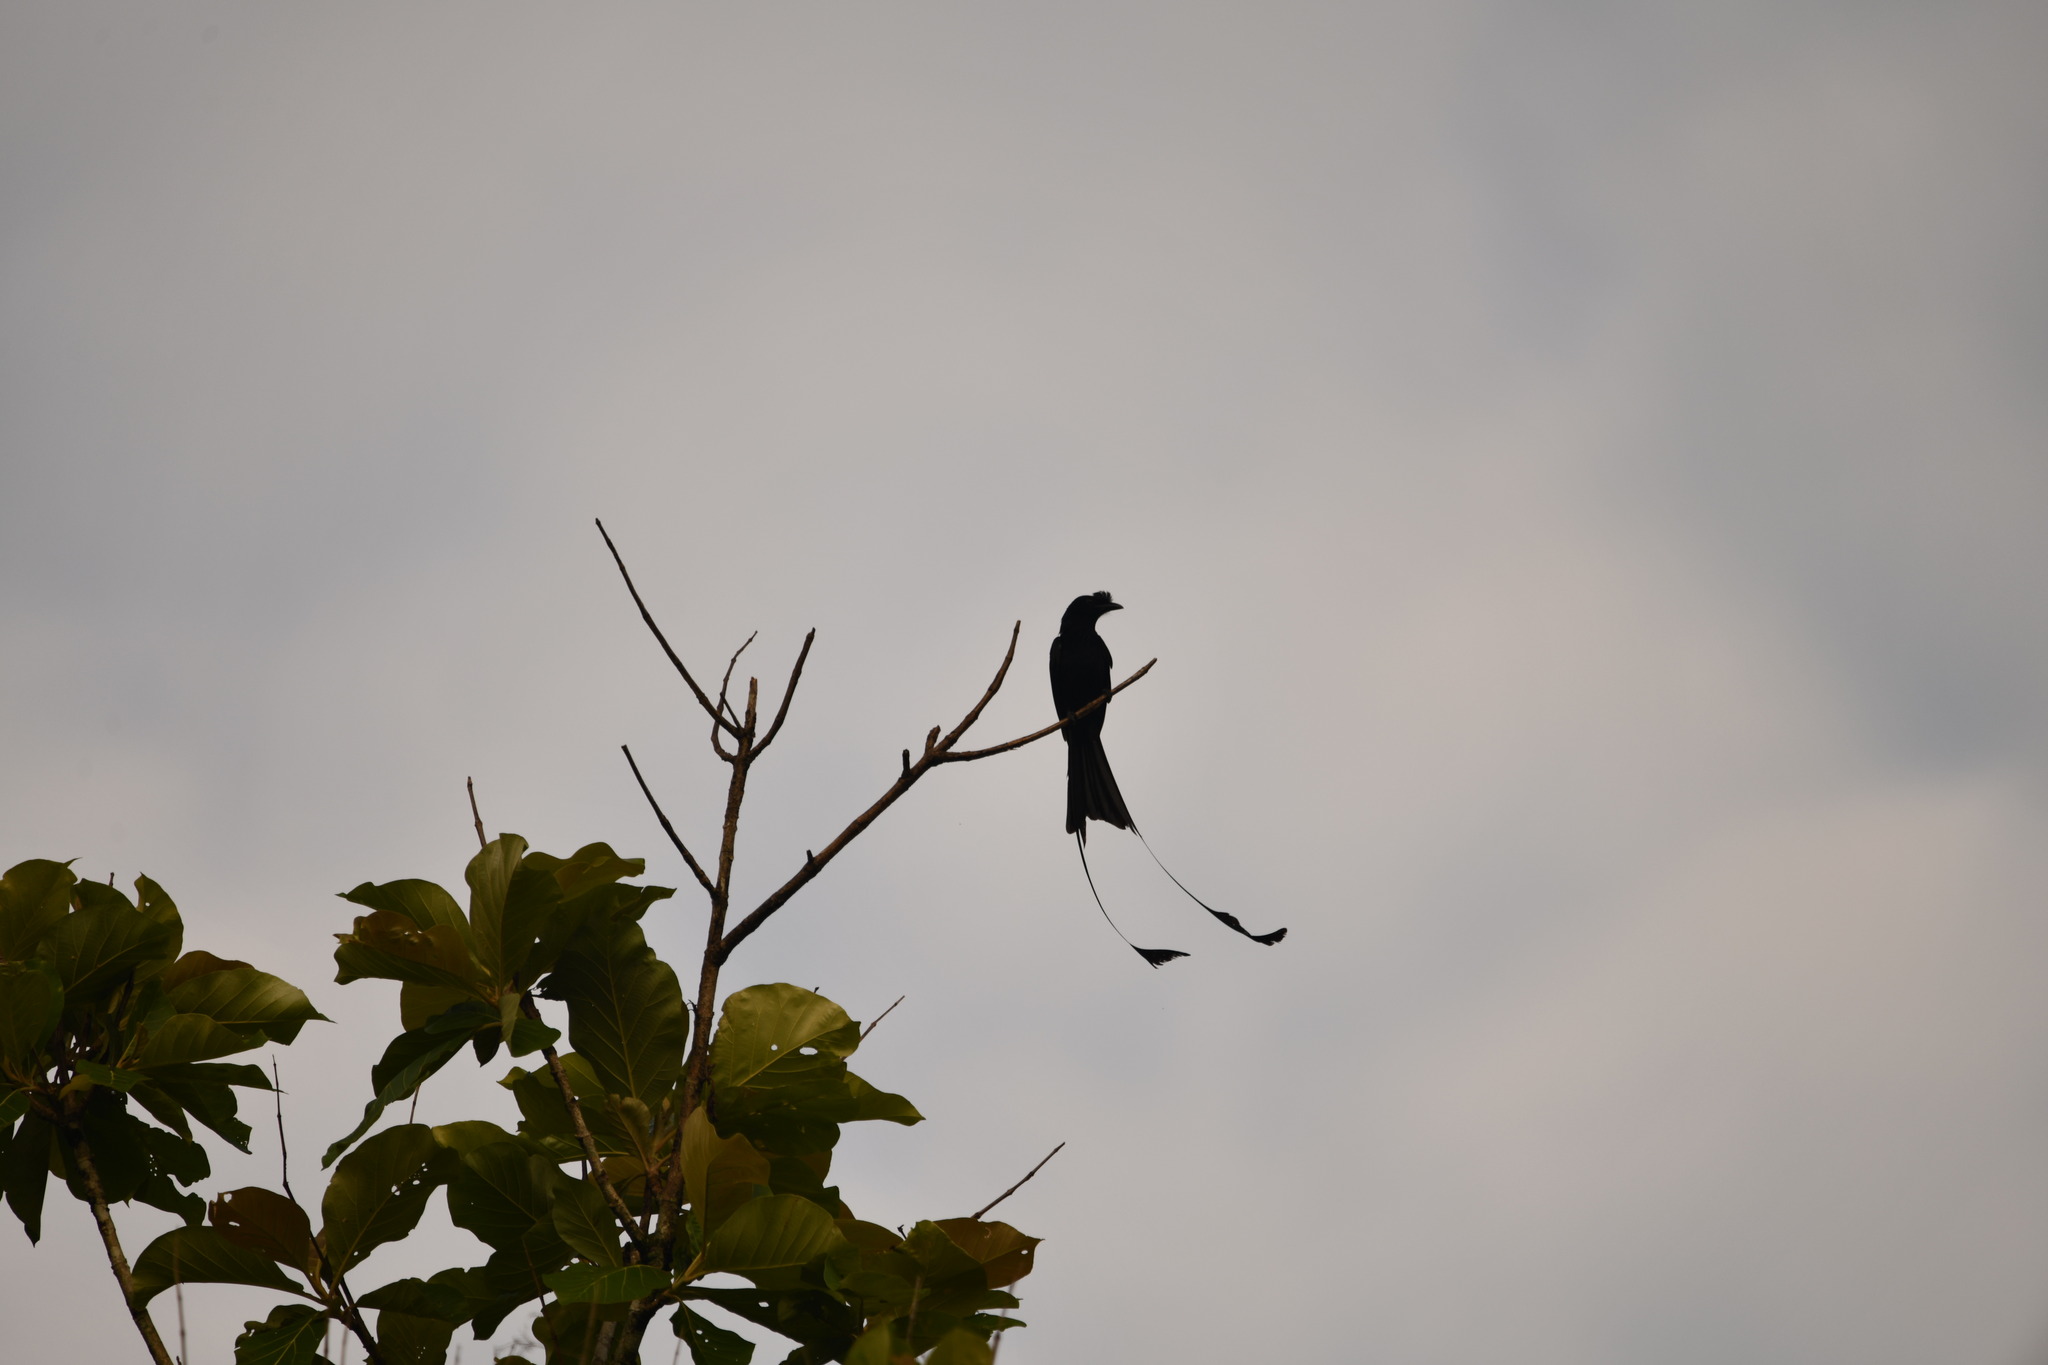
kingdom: Animalia
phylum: Chordata
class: Aves
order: Passeriformes
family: Dicruridae
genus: Dicrurus
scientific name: Dicrurus paradiseus
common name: Greater racket-tailed drongo
